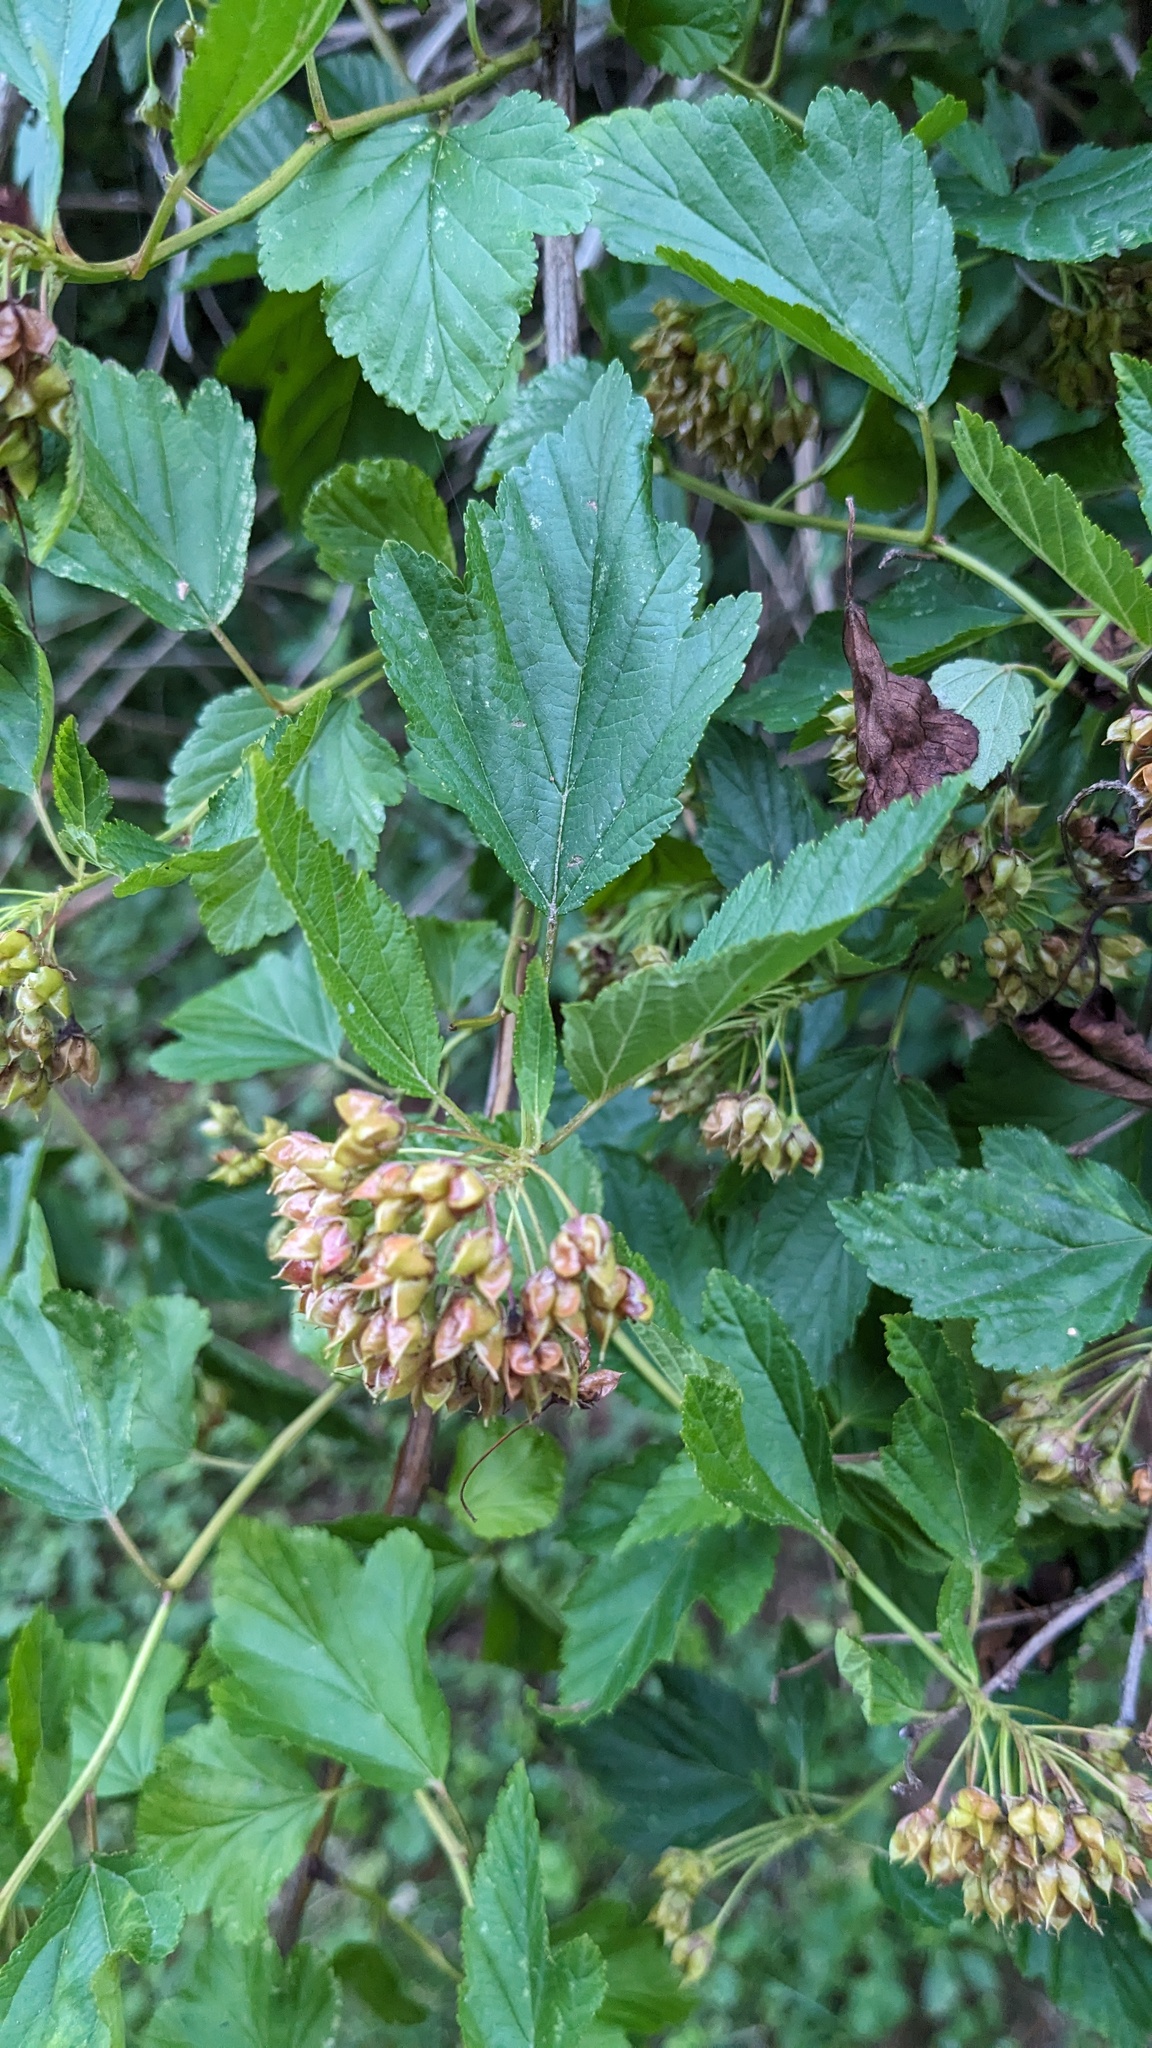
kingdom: Plantae
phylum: Tracheophyta
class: Magnoliopsida
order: Rosales
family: Rosaceae
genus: Physocarpus
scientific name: Physocarpus opulifolius
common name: Ninebark
